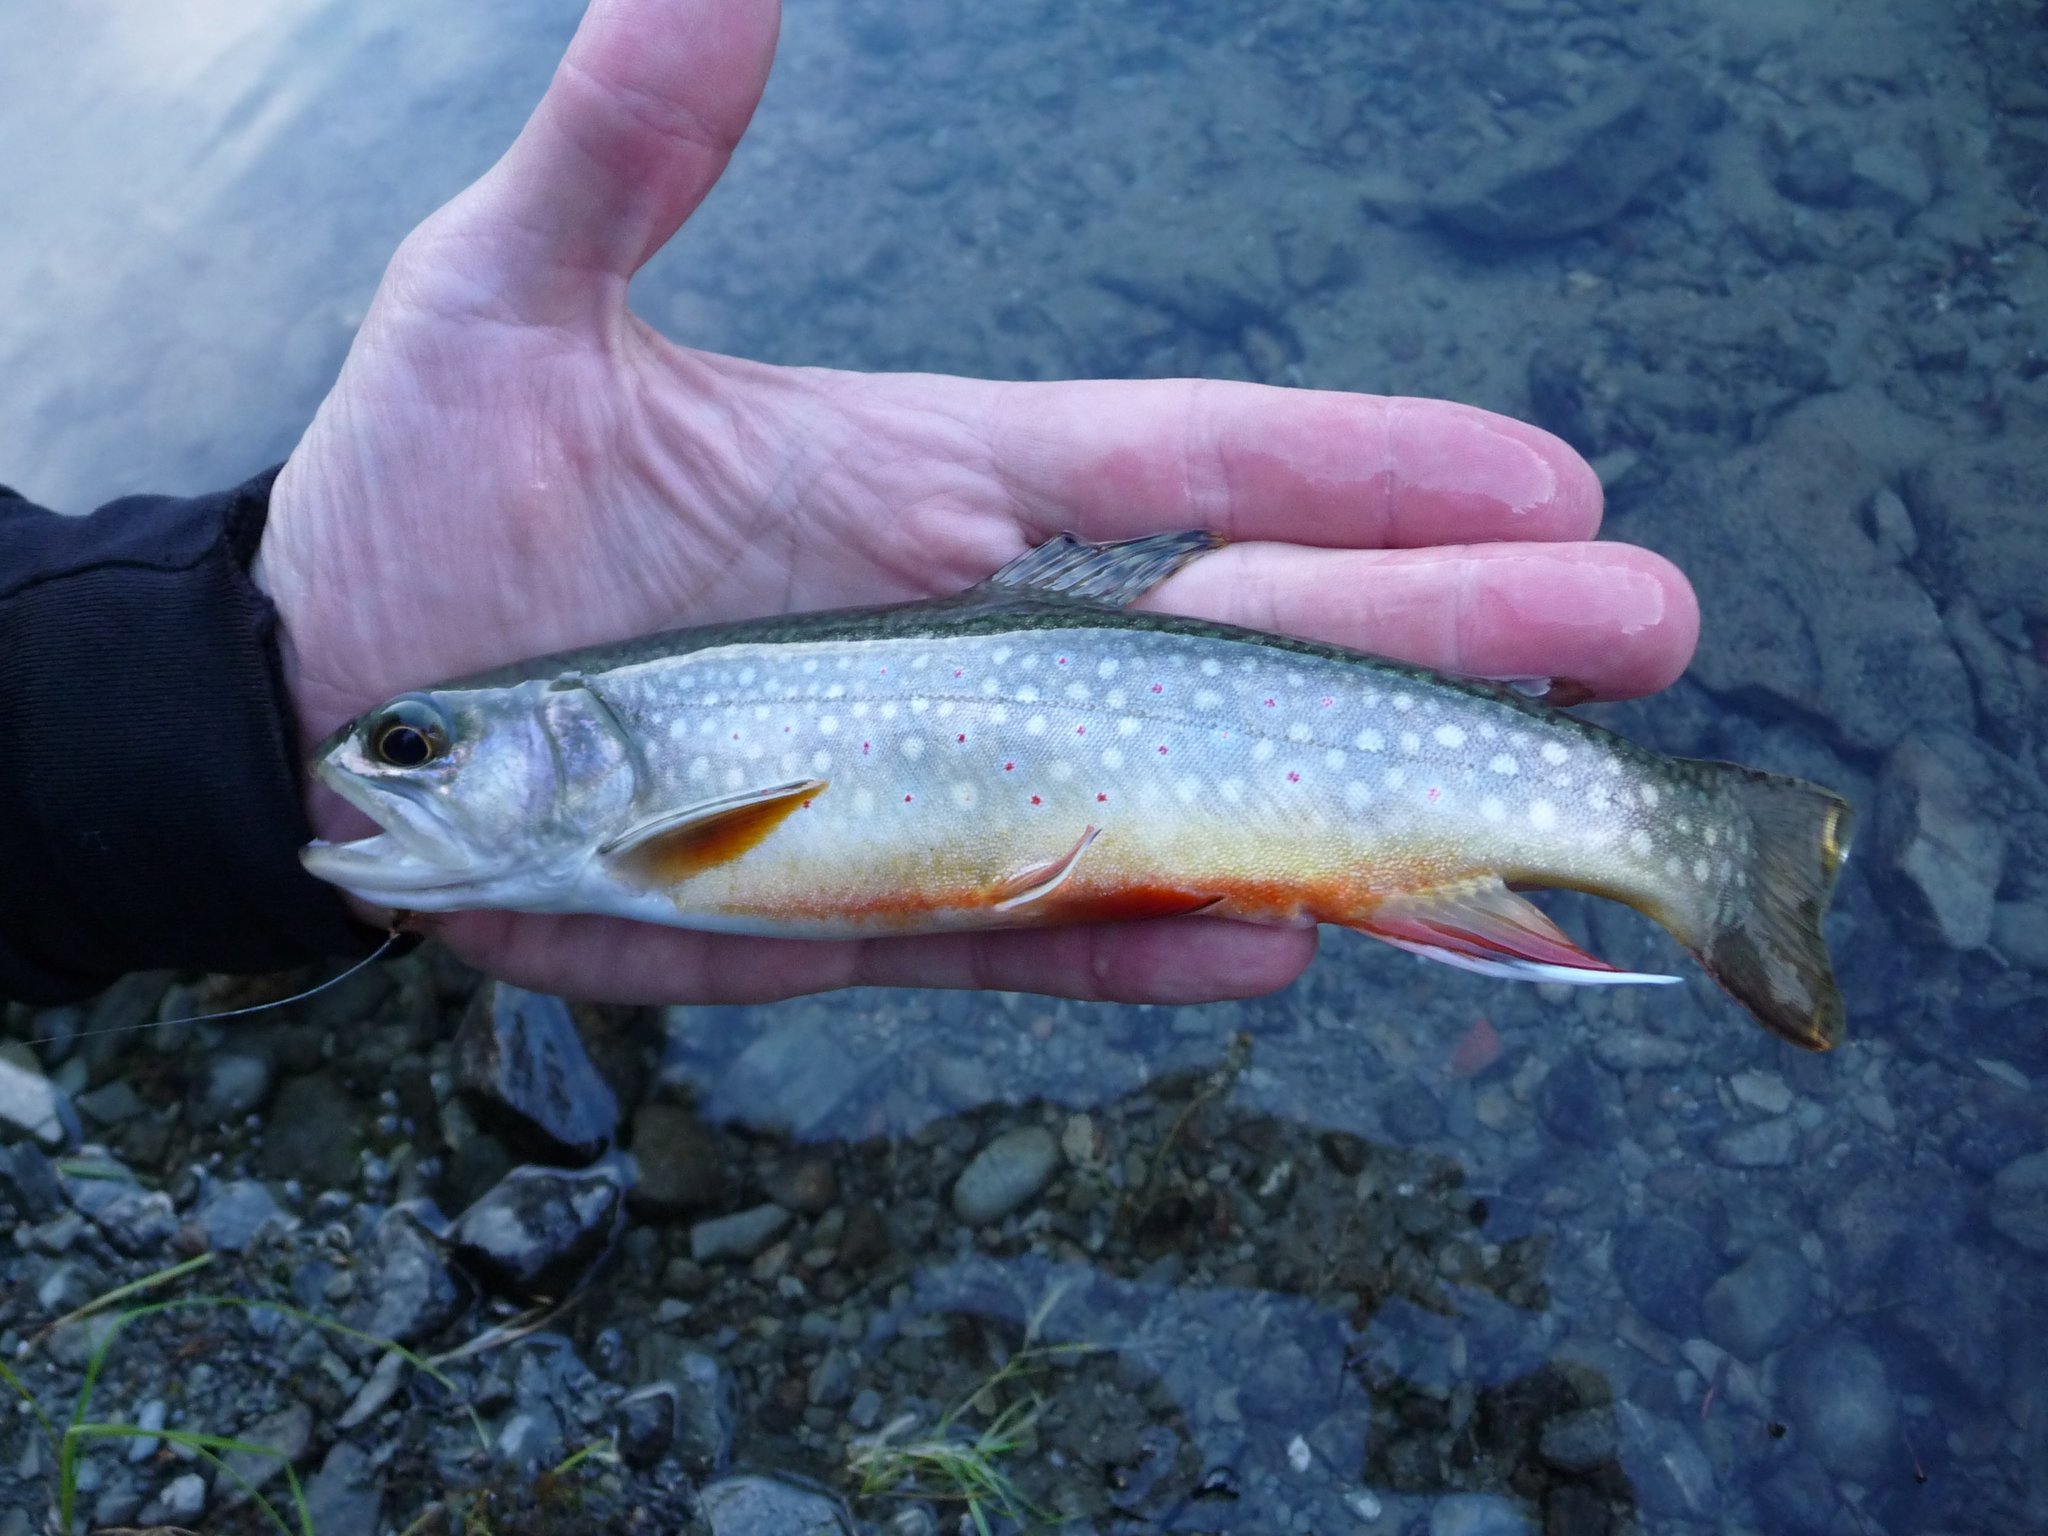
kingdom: Animalia
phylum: Chordata
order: Salmoniformes
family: Salmonidae
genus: Salvelinus
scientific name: Salvelinus fontinalis
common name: Brook trout
